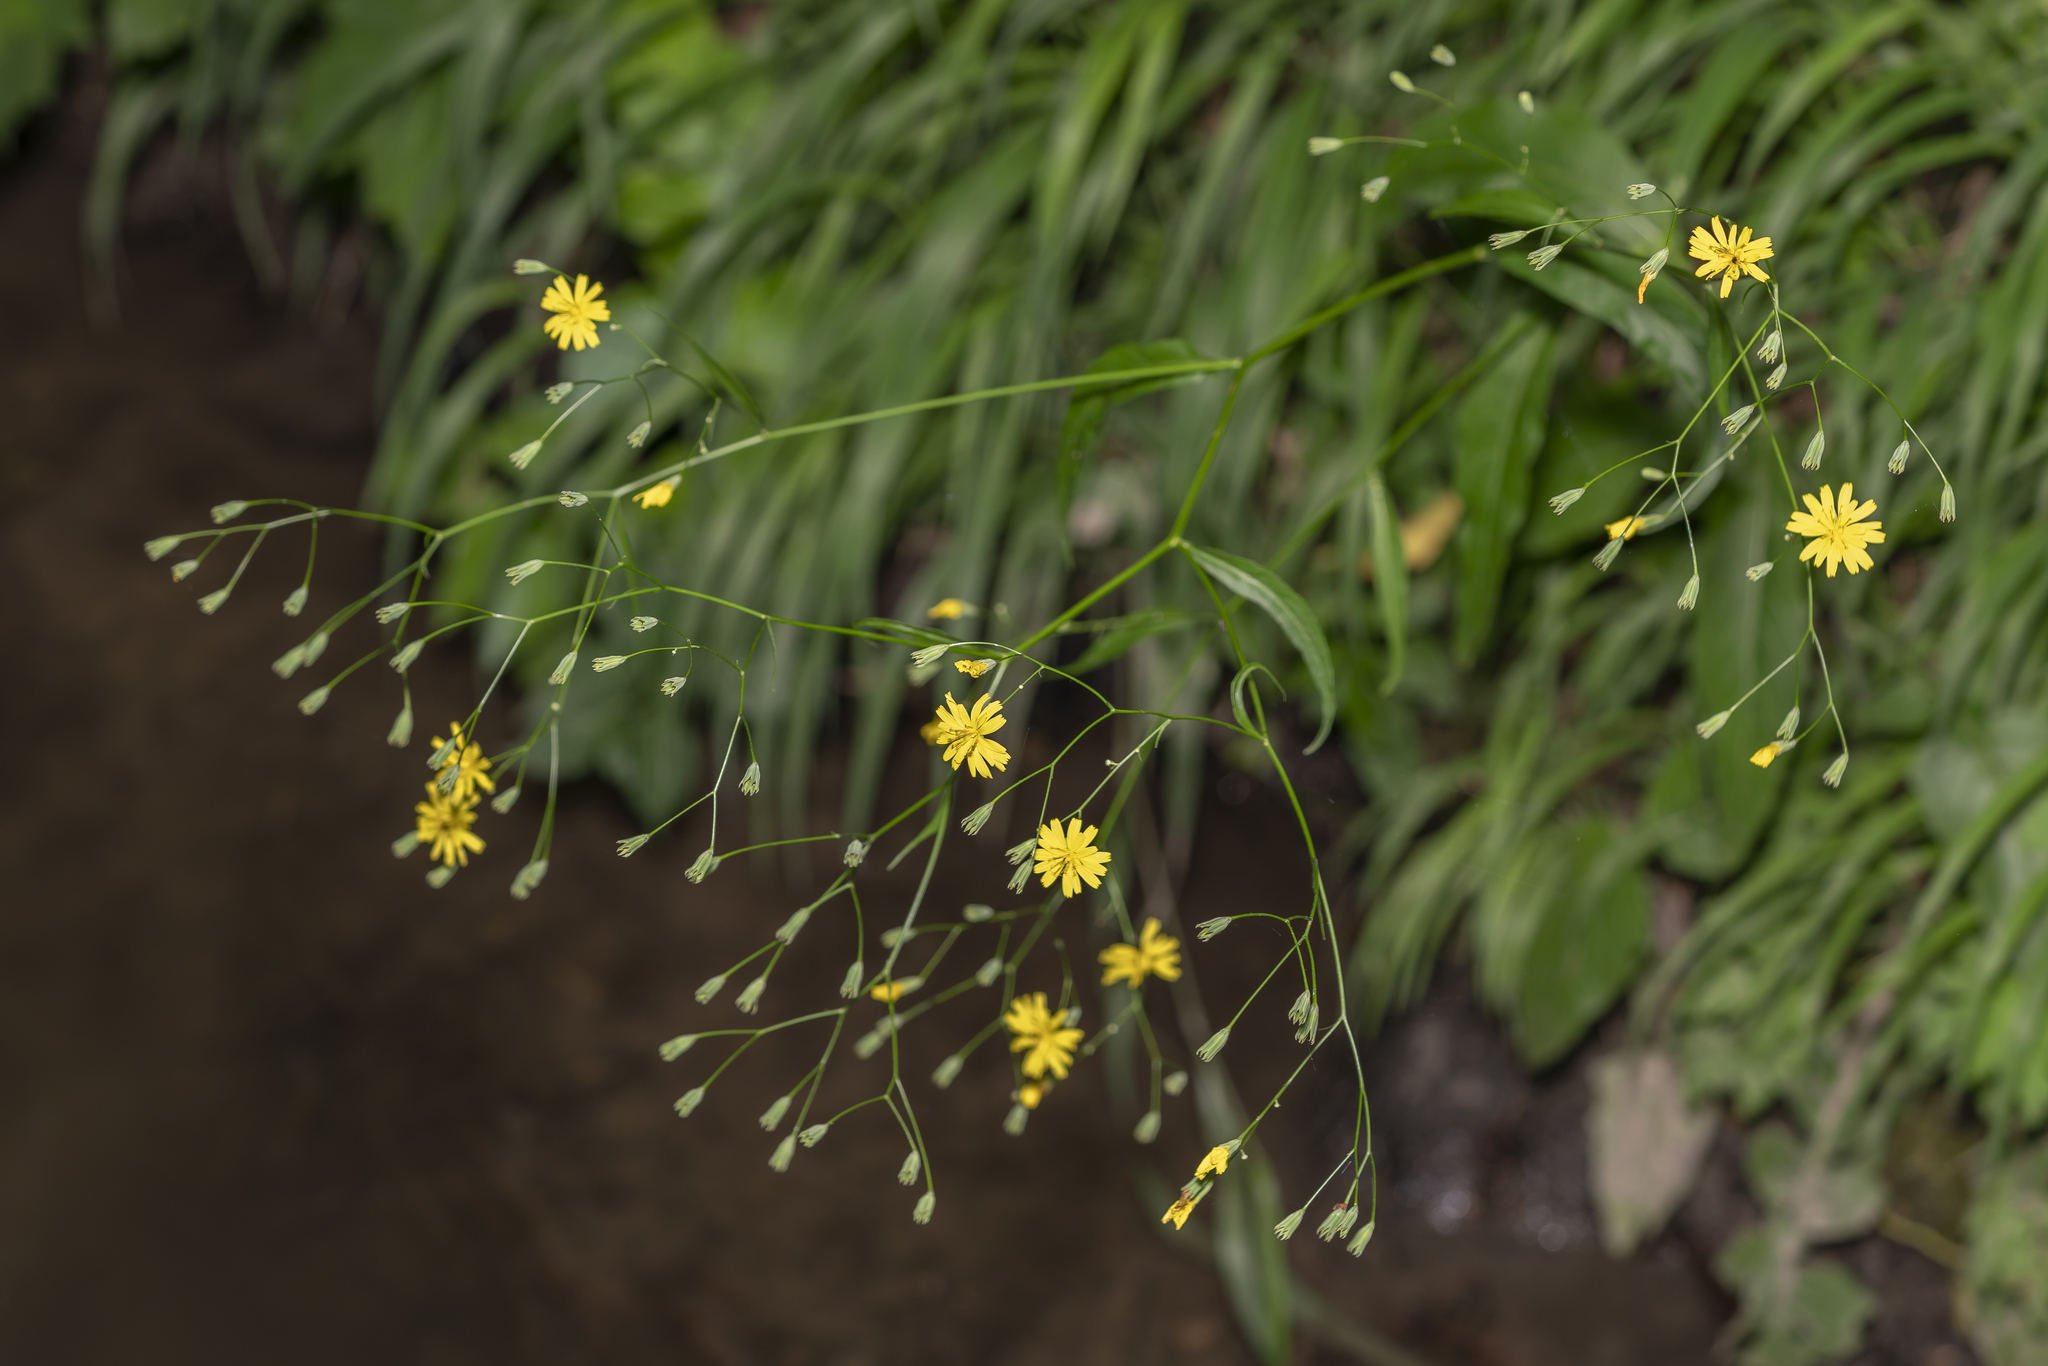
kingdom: Plantae
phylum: Tracheophyta
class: Magnoliopsida
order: Asterales
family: Asteraceae
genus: Lapsana
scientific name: Lapsana communis
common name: Nipplewort
